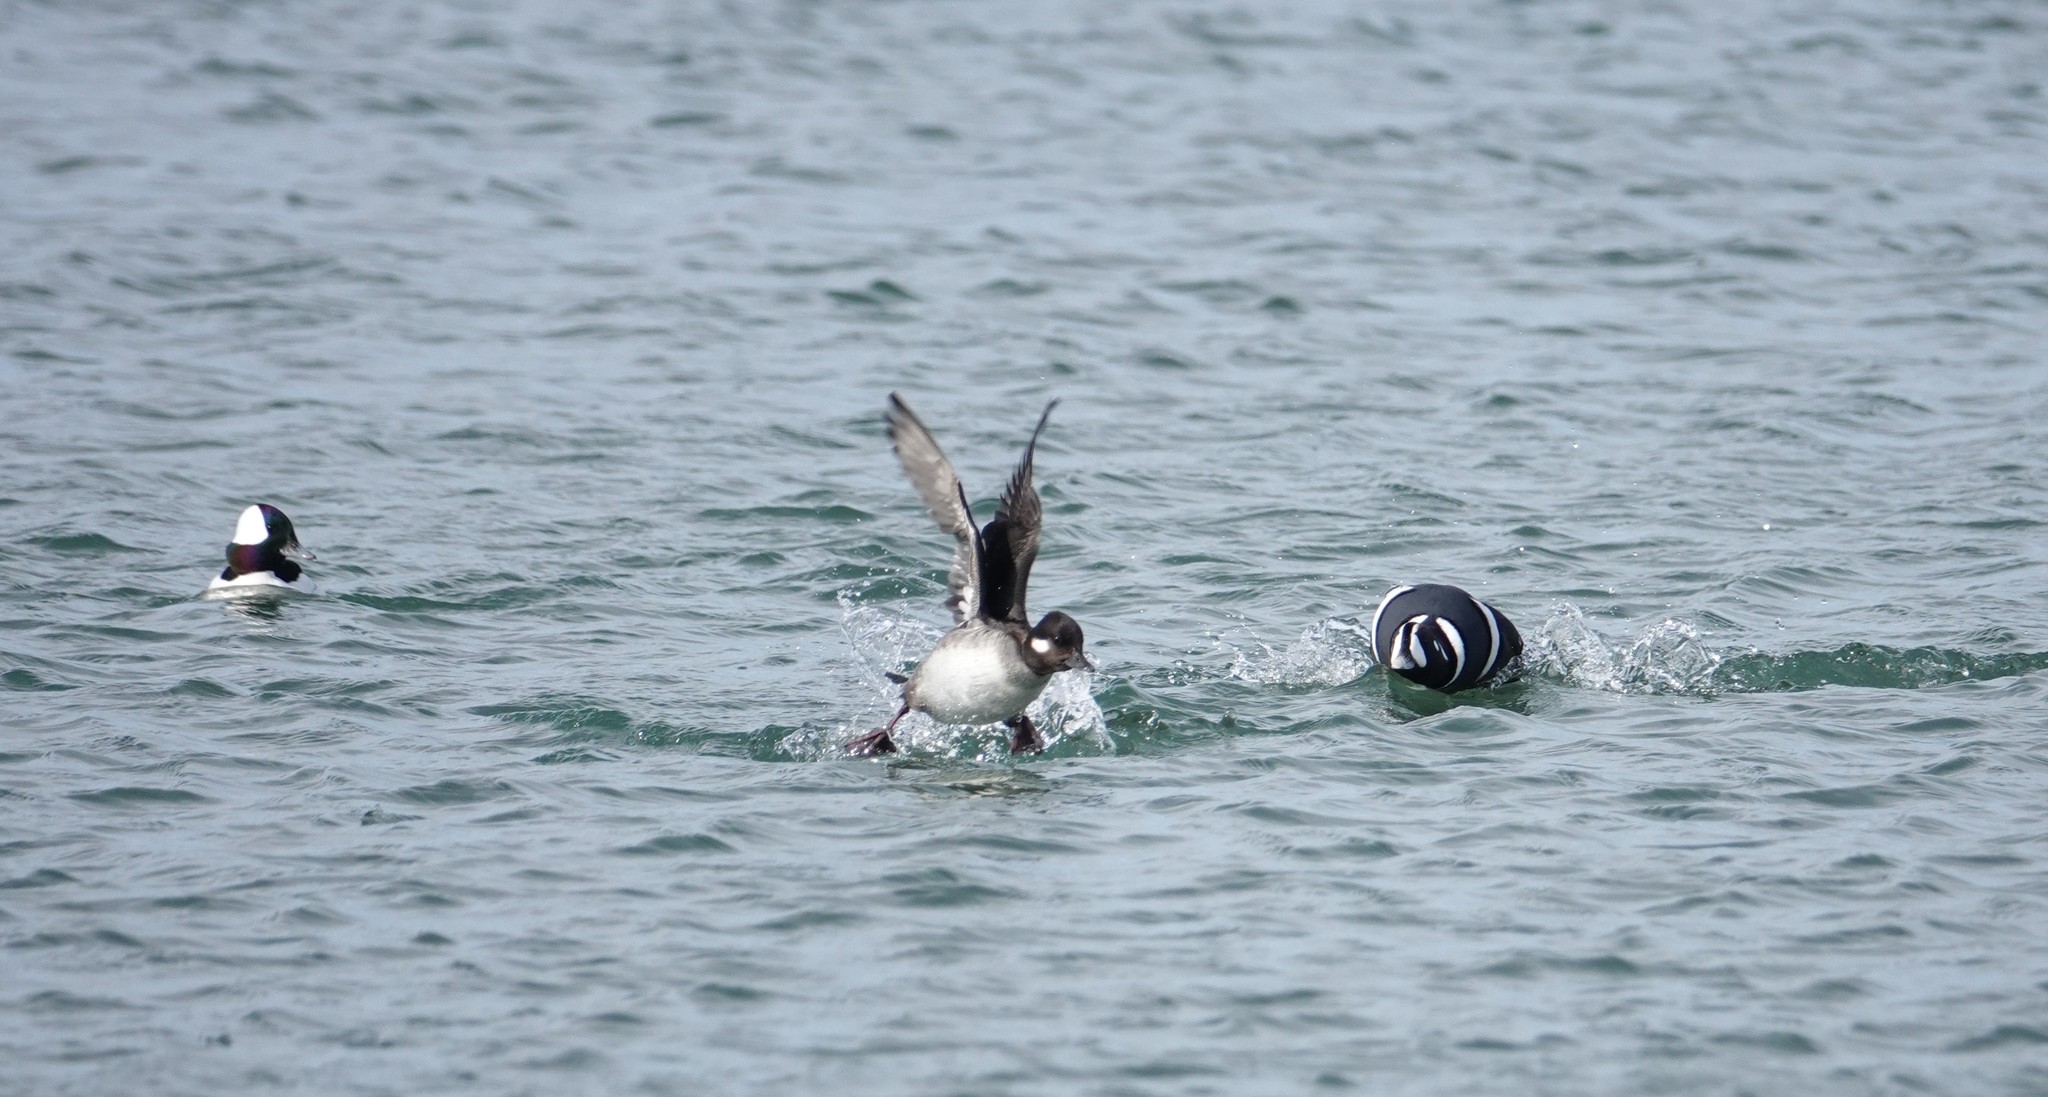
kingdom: Animalia
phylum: Chordata
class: Aves
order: Anseriformes
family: Anatidae
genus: Bucephala
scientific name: Bucephala albeola
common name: Bufflehead
